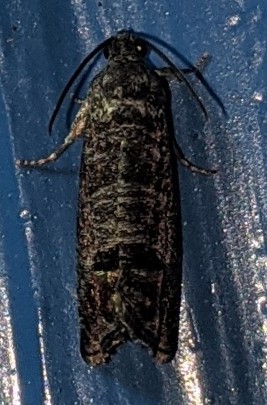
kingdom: Animalia
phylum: Arthropoda
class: Insecta
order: Lepidoptera
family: Tortricidae
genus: Cydia
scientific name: Cydia pomonella
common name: Codling moth
